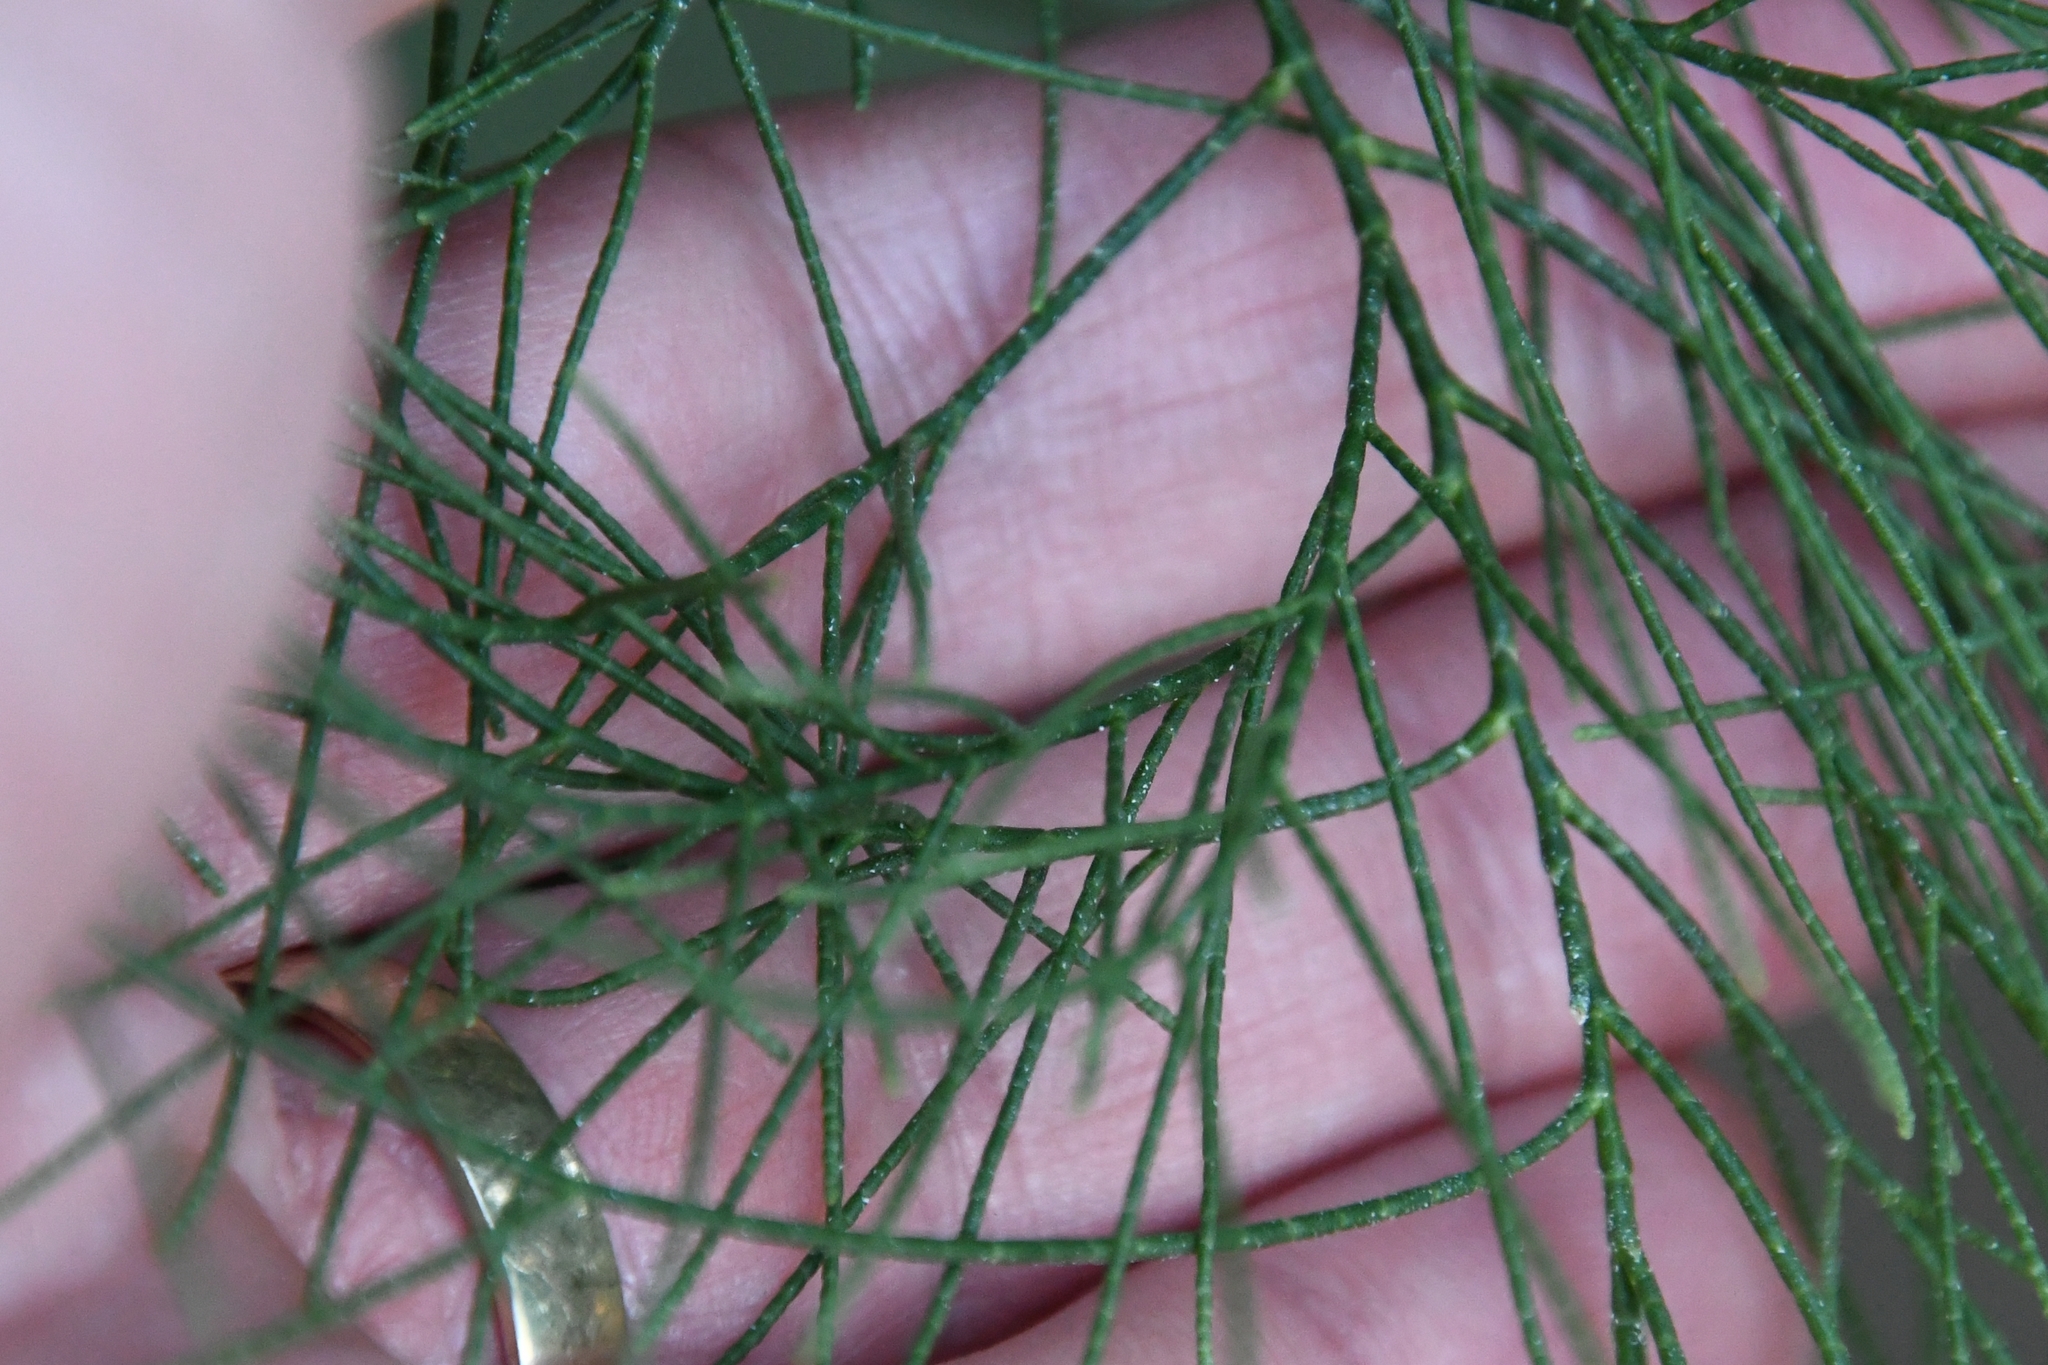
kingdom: Plantae
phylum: Tracheophyta
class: Magnoliopsida
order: Caryophyllales
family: Tamaricaceae
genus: Tamarix
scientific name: Tamarix aphylla
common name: Athel tamarisk
